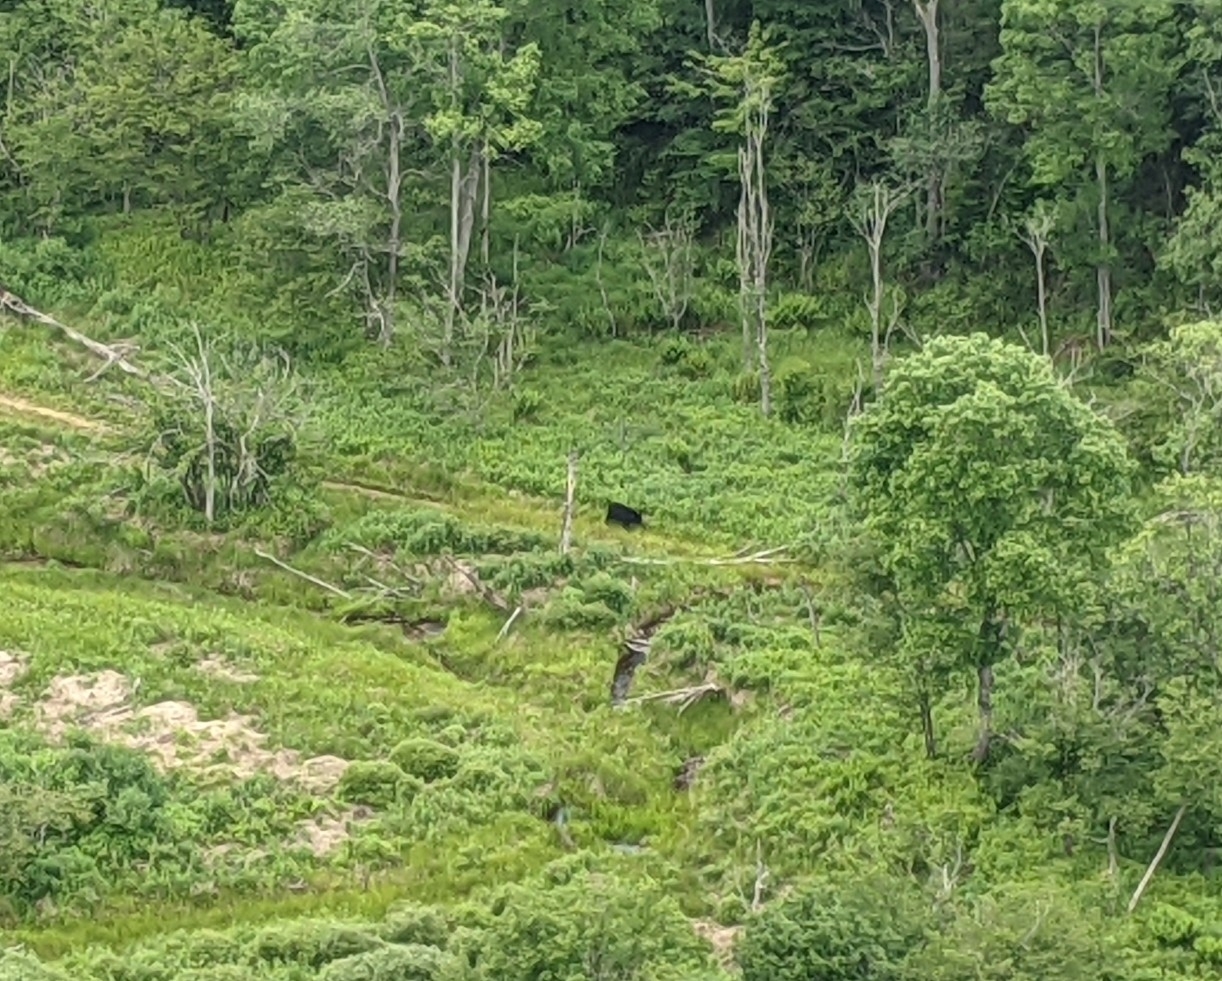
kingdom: Animalia
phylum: Chordata
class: Mammalia
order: Carnivora
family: Ursidae
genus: Ursus
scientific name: Ursus americanus
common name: American black bear
